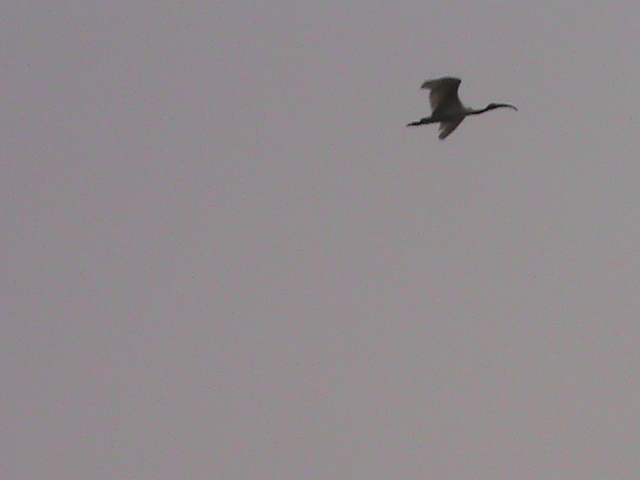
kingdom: Animalia
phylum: Chordata
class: Aves
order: Pelecaniformes
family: Threskiornithidae
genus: Threskiornis
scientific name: Threskiornis melanocephalus
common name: Black-headed ibis
